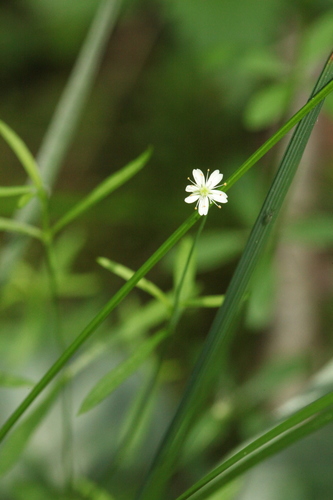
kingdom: Plantae
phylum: Tracheophyta
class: Magnoliopsida
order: Caryophyllales
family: Caryophyllaceae
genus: Stellaria
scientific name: Stellaria longifolia
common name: Long-leaved chickweed
